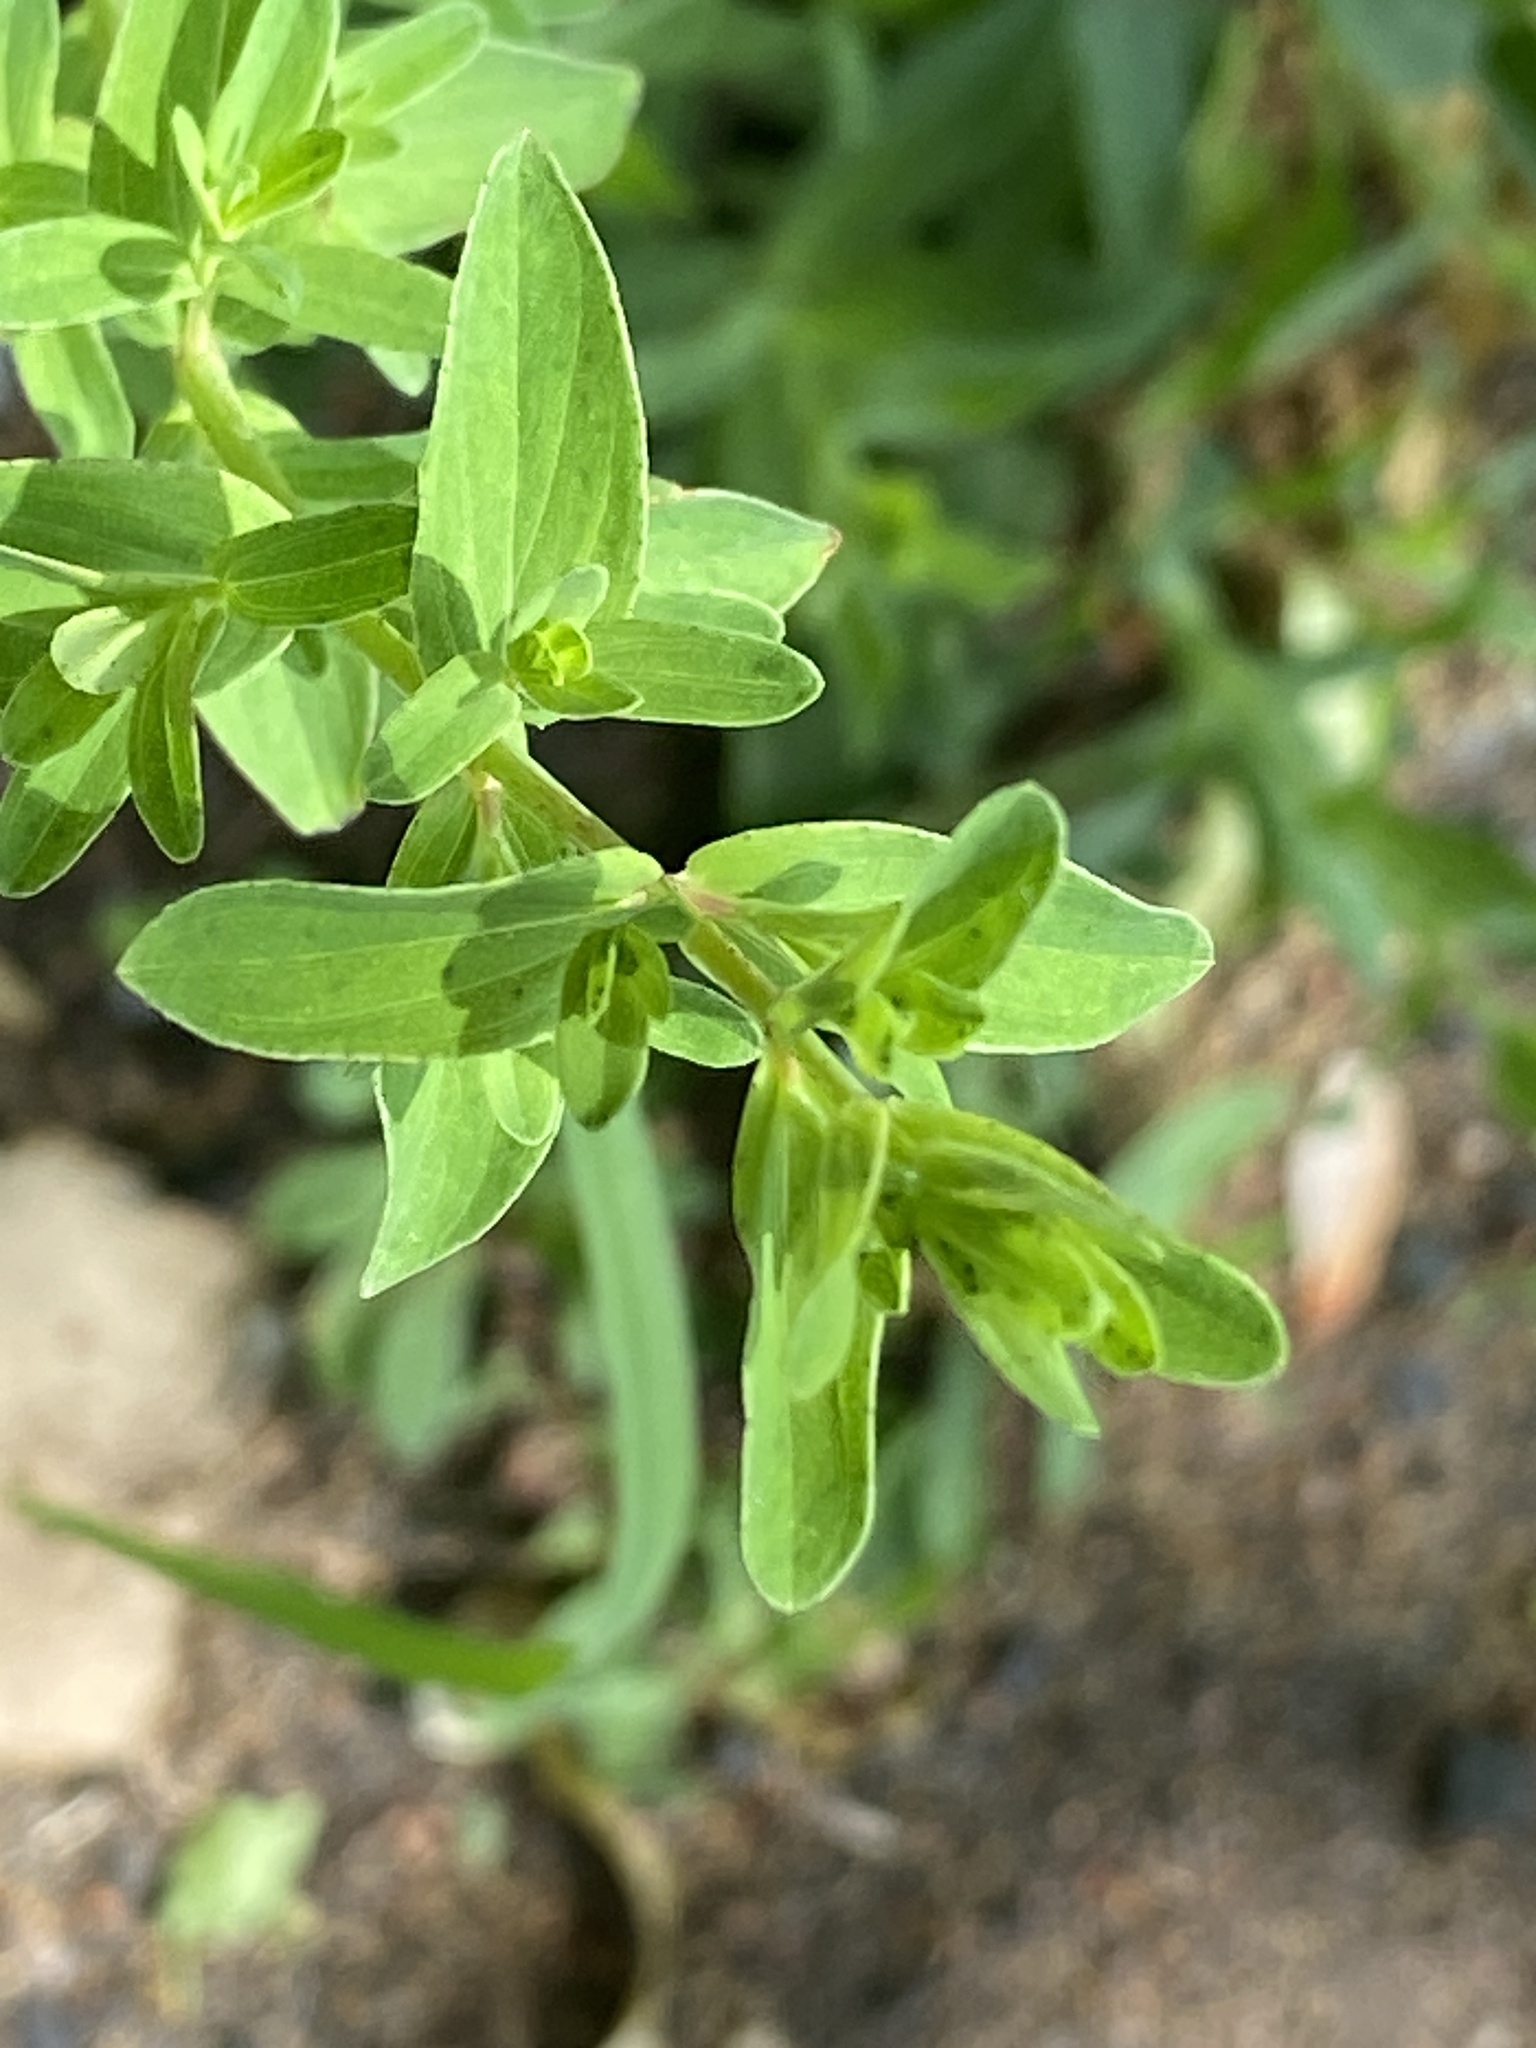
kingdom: Plantae
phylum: Tracheophyta
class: Magnoliopsida
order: Malpighiales
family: Hypericaceae
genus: Hypericum
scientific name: Hypericum perforatum
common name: Common st. johnswort
